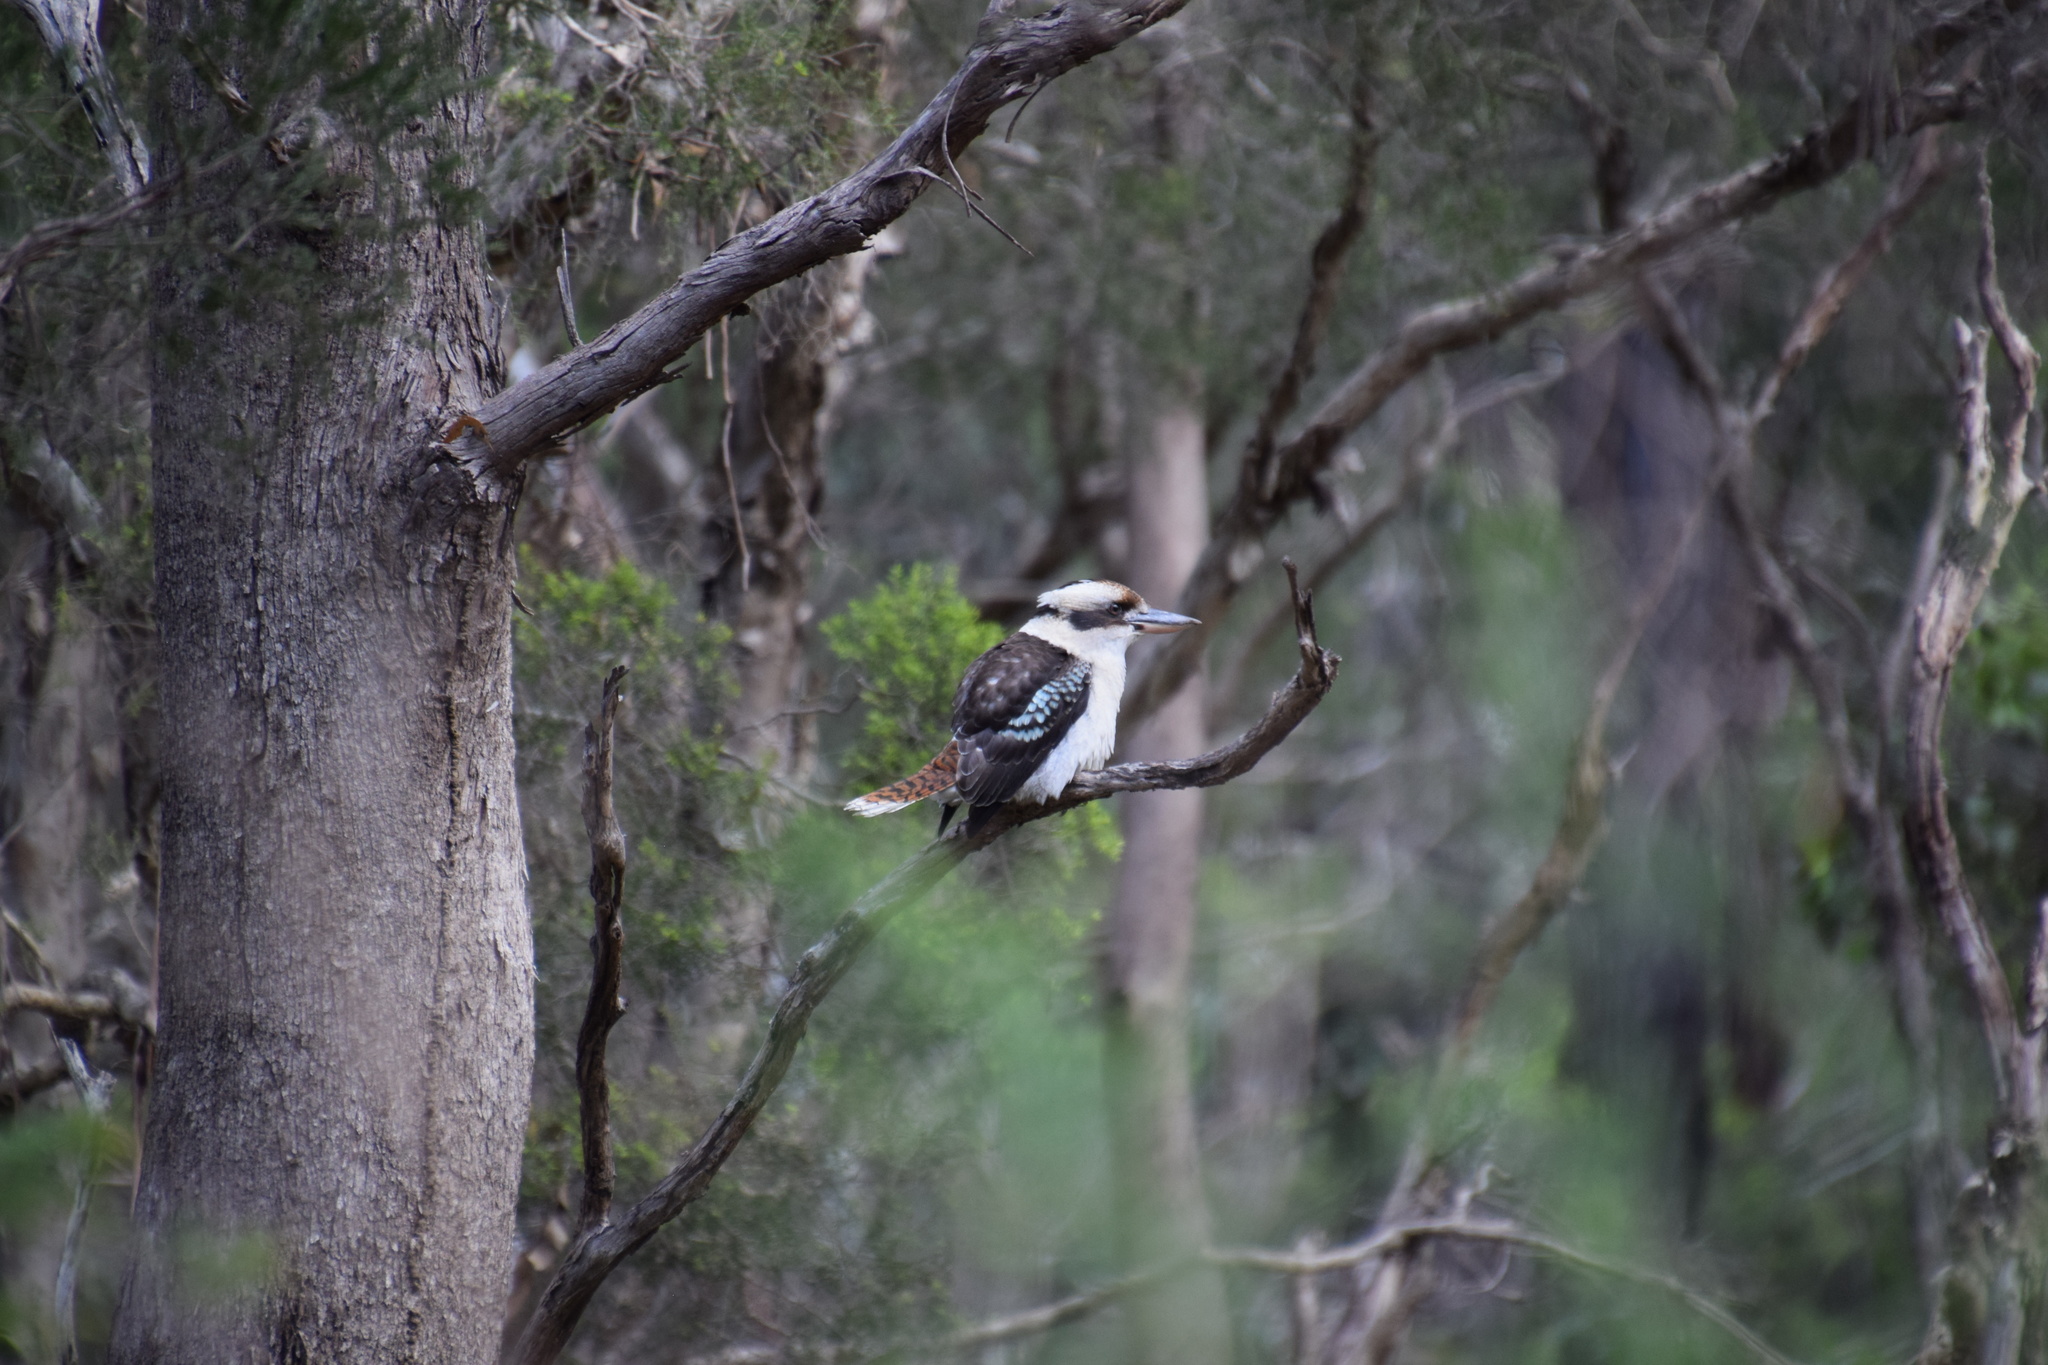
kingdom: Animalia
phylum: Chordata
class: Aves
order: Coraciiformes
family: Alcedinidae
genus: Dacelo
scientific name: Dacelo novaeguineae
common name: Laughing kookaburra
